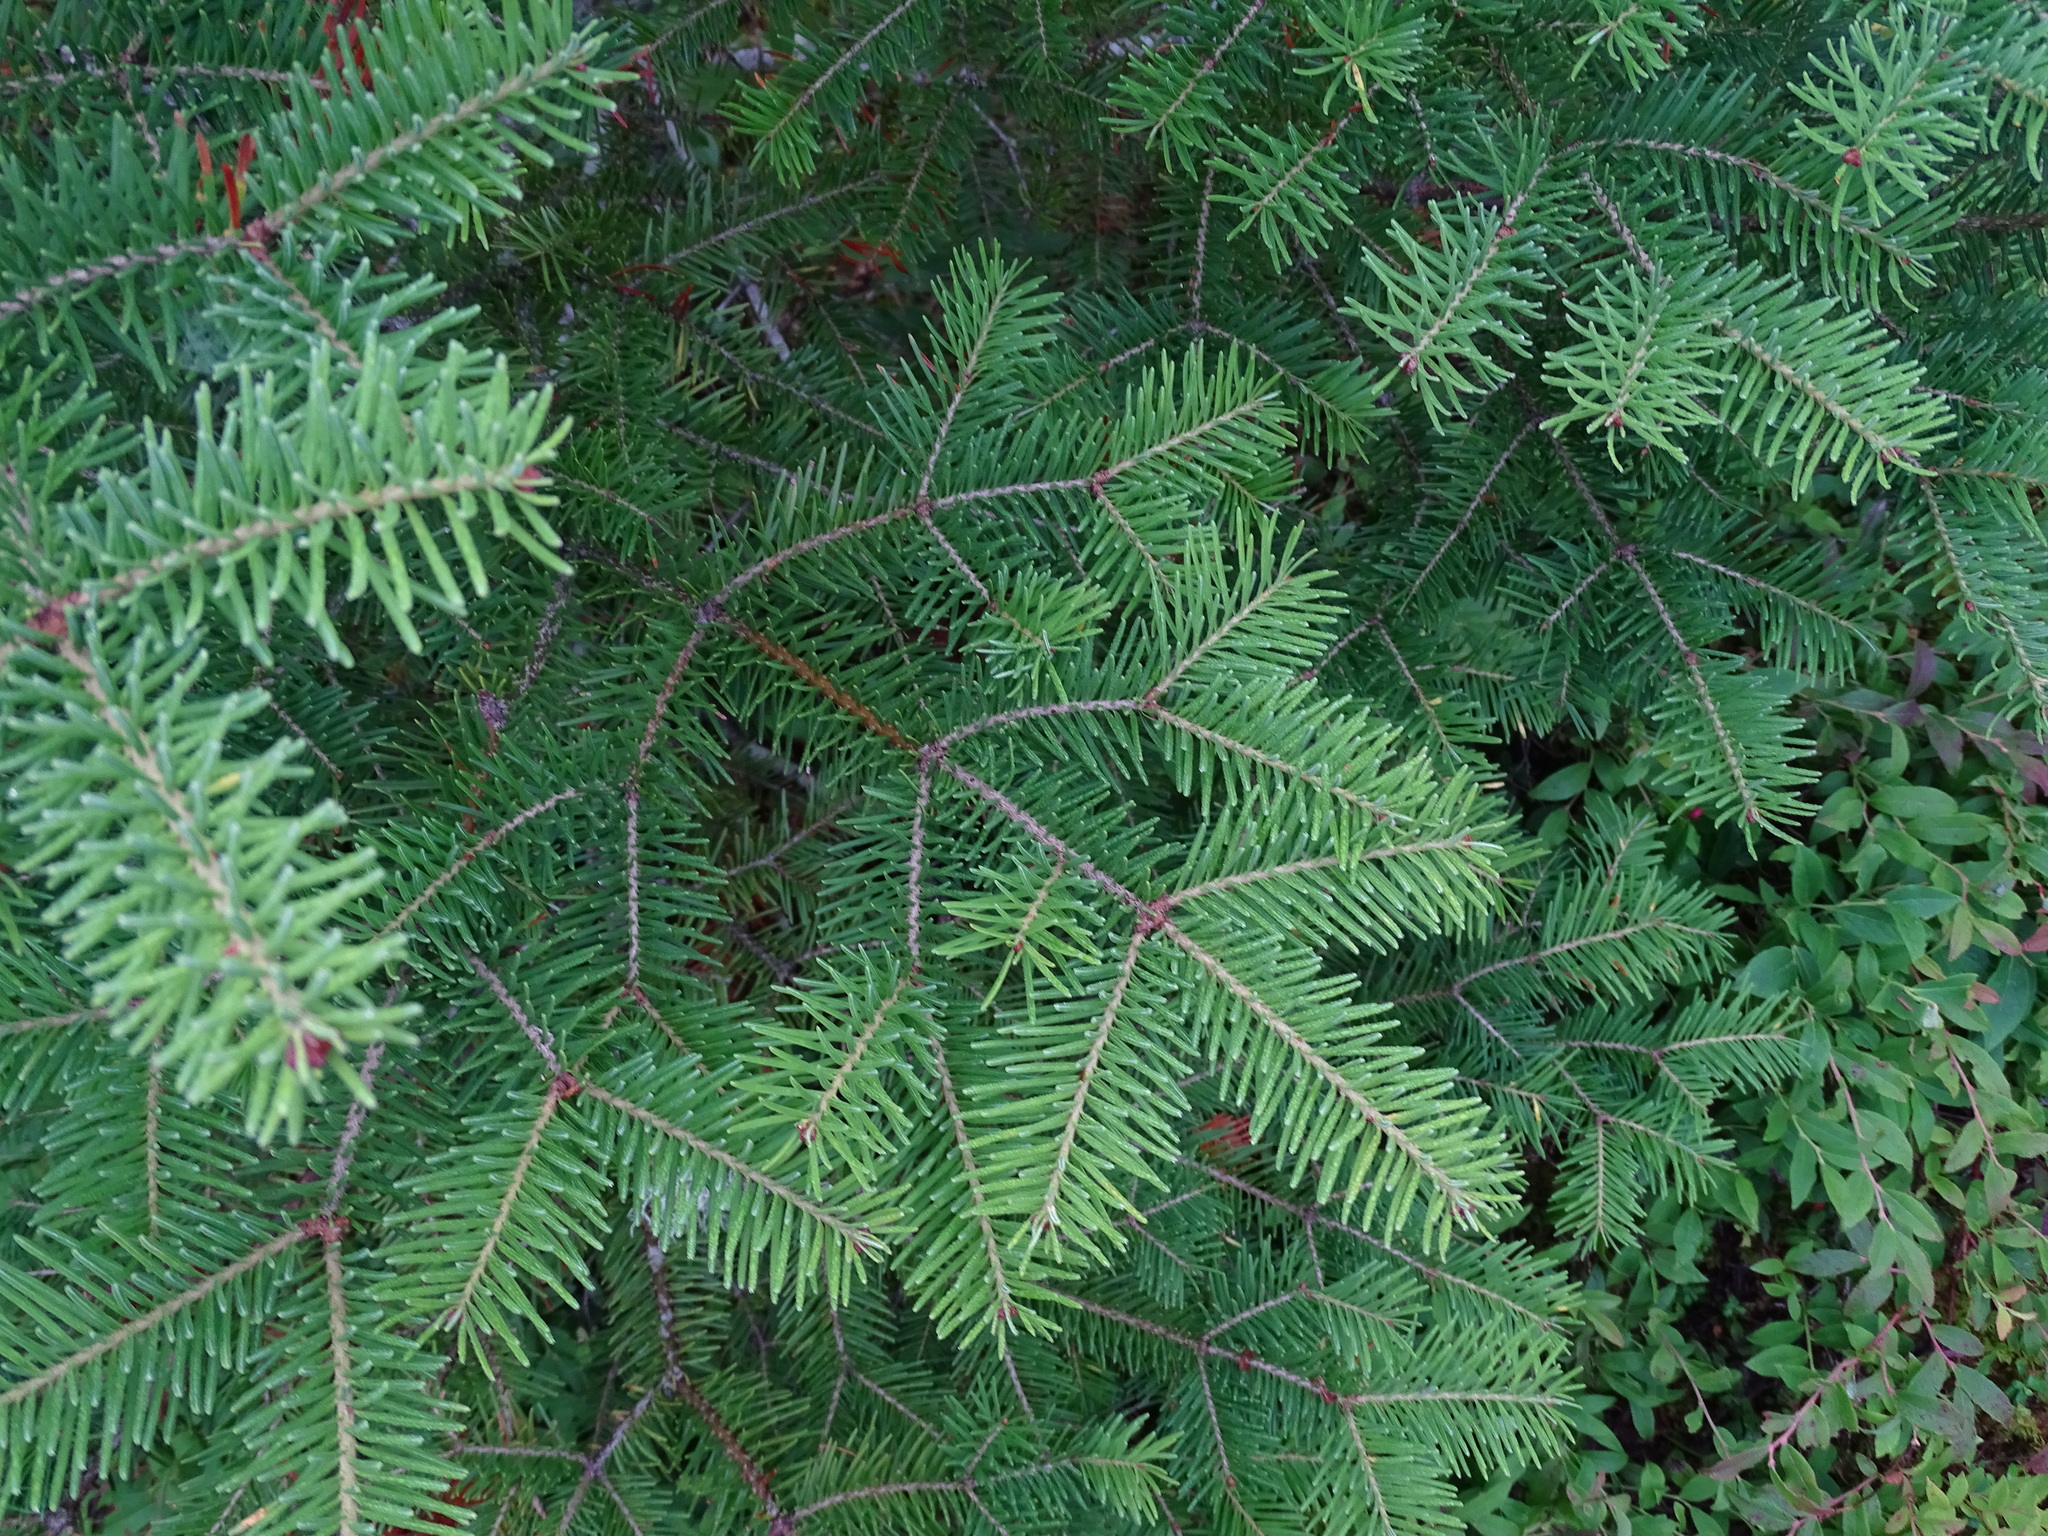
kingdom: Plantae
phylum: Tracheophyta
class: Pinopsida
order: Pinales
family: Pinaceae
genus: Abies
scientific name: Abies balsamea
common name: Balsam fir
